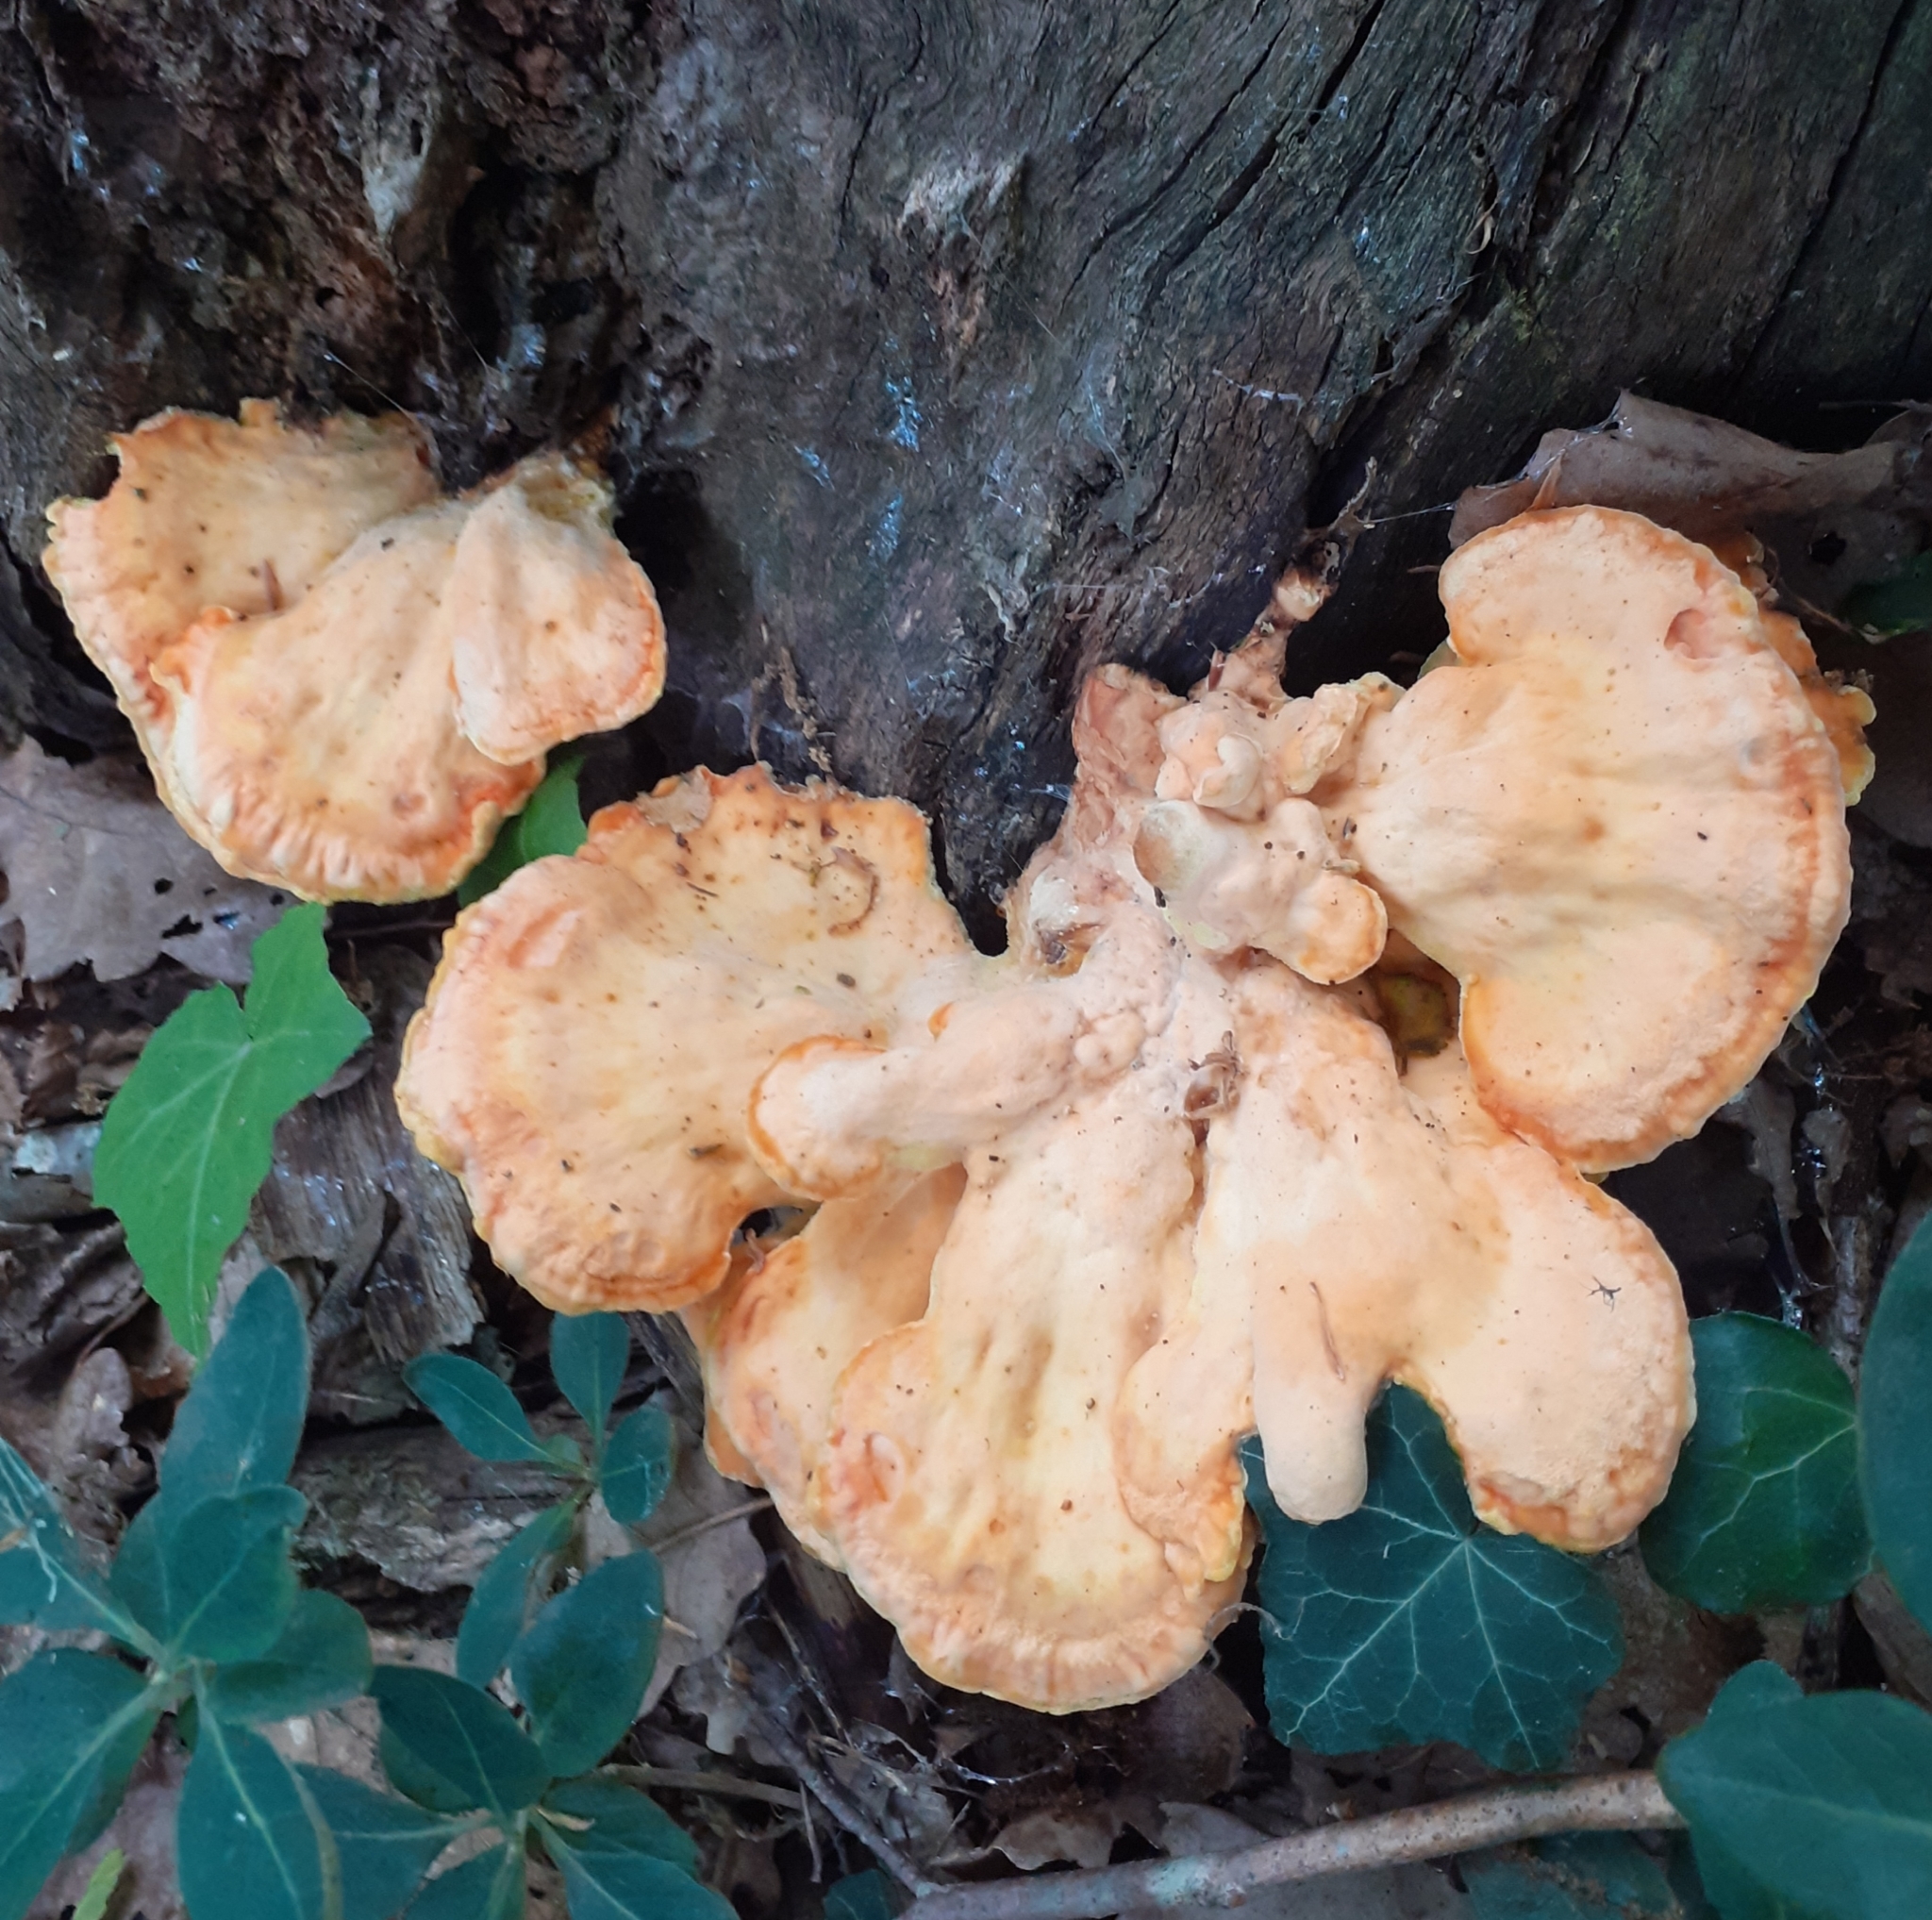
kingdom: Fungi
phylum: Basidiomycota
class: Agaricomycetes
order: Polyporales
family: Laetiporaceae
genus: Laetiporus
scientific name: Laetiporus sulphureus
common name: Chicken of the woods
